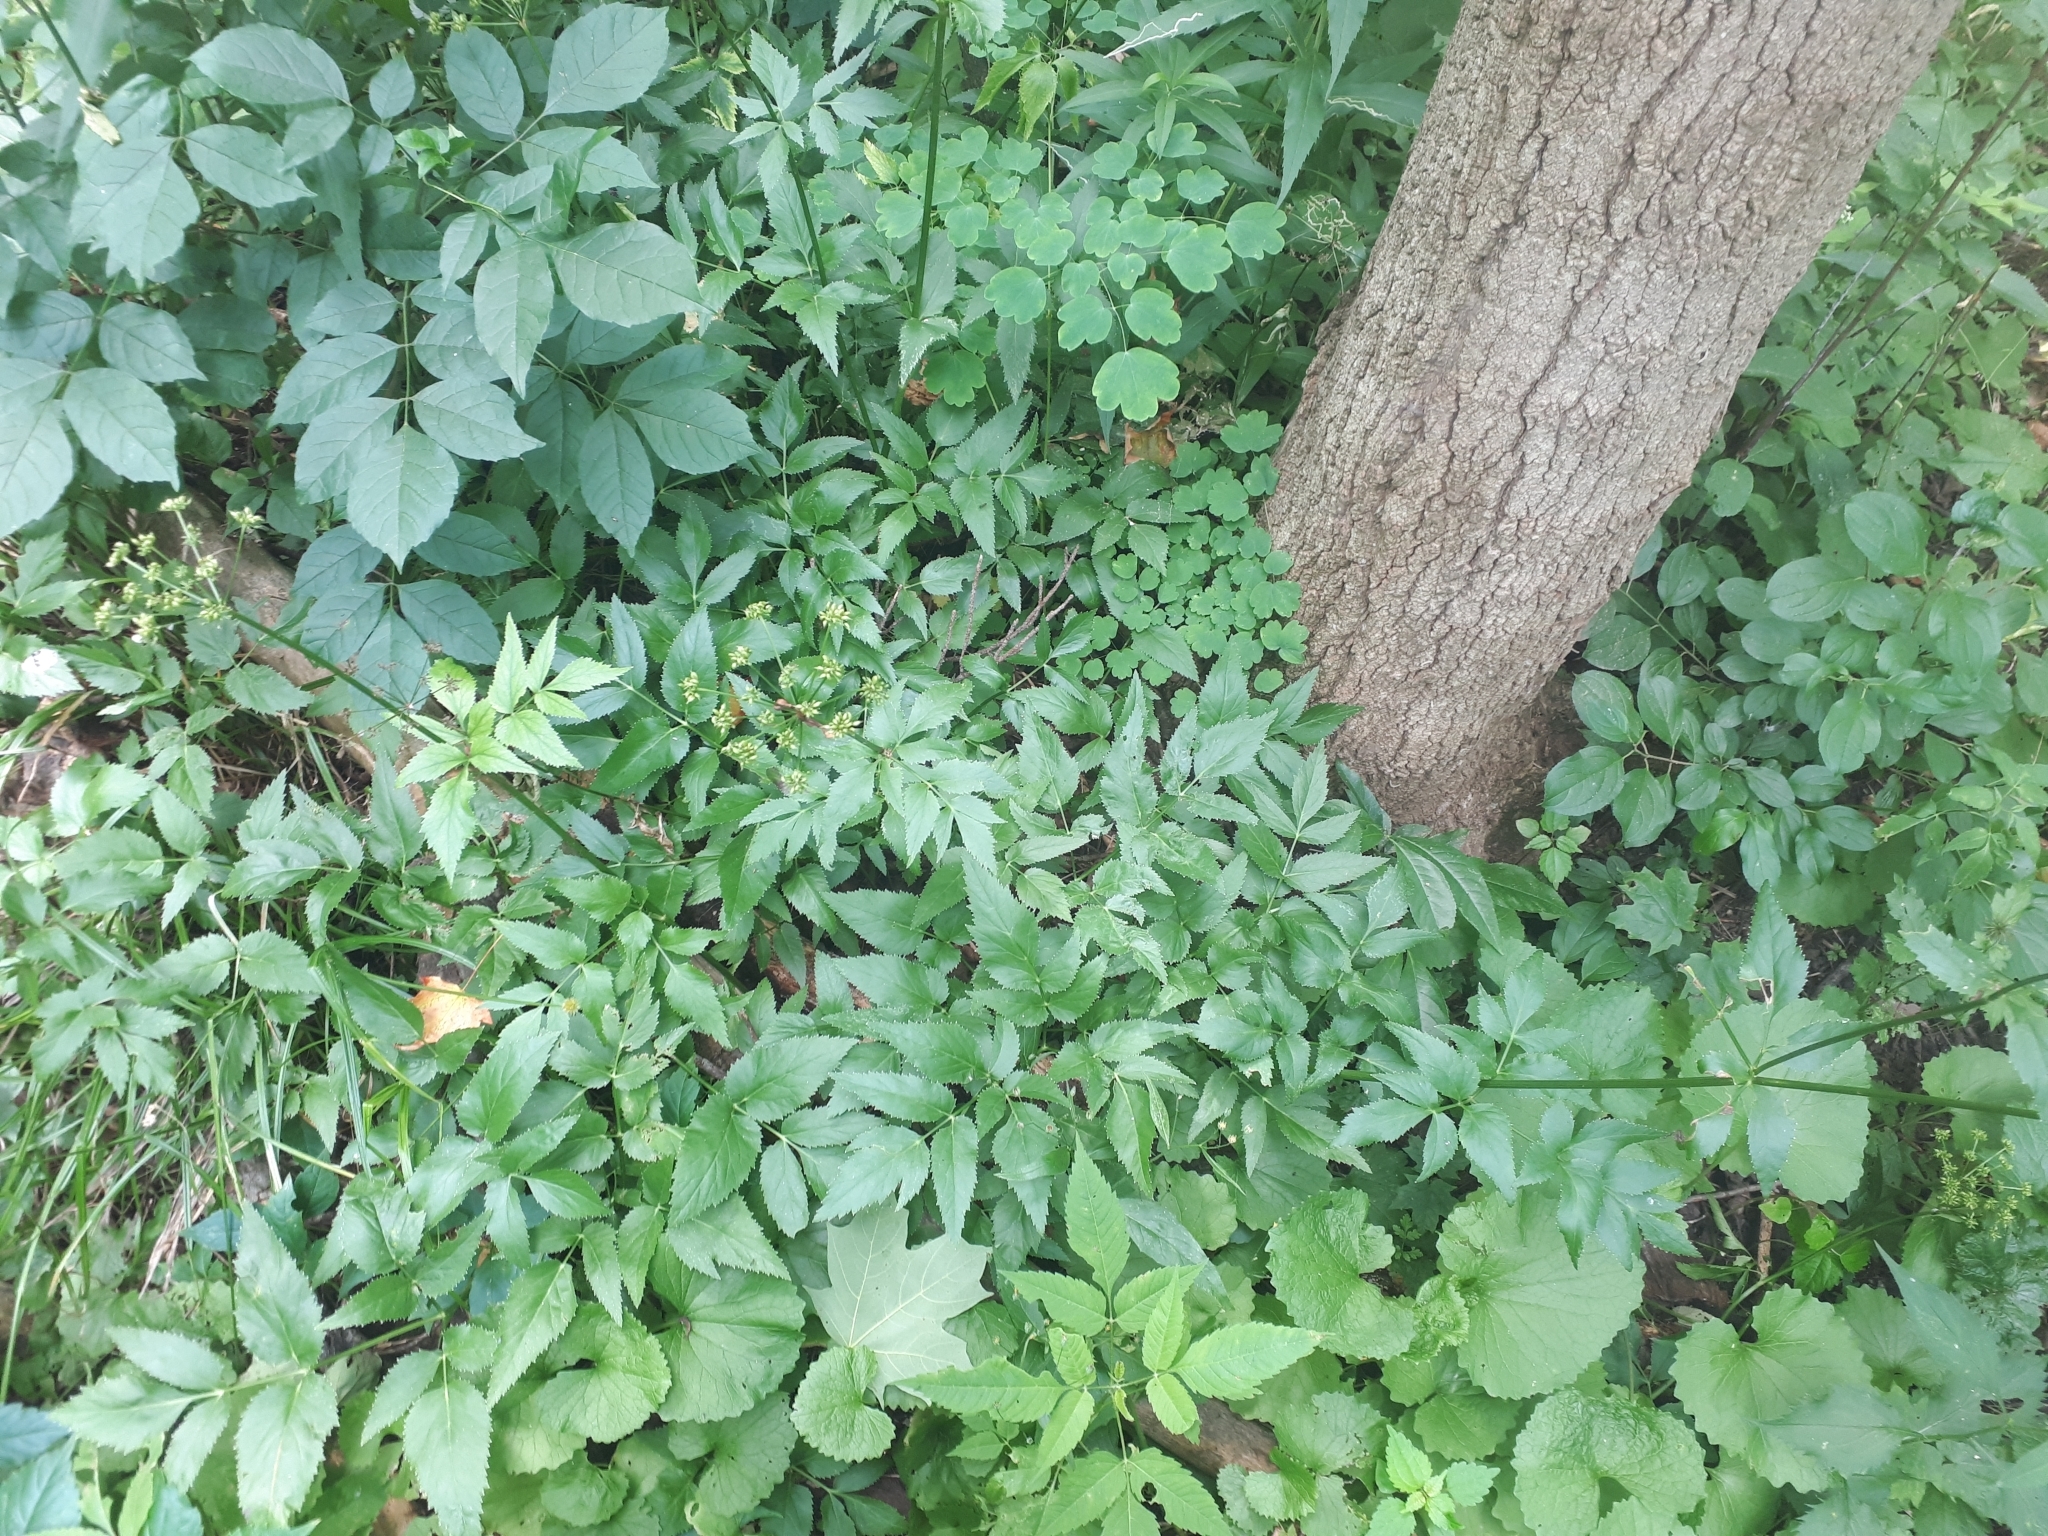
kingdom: Plantae
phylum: Tracheophyta
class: Magnoliopsida
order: Apiales
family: Apiaceae
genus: Zizia
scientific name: Zizia aurea
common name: Golden alexanders
